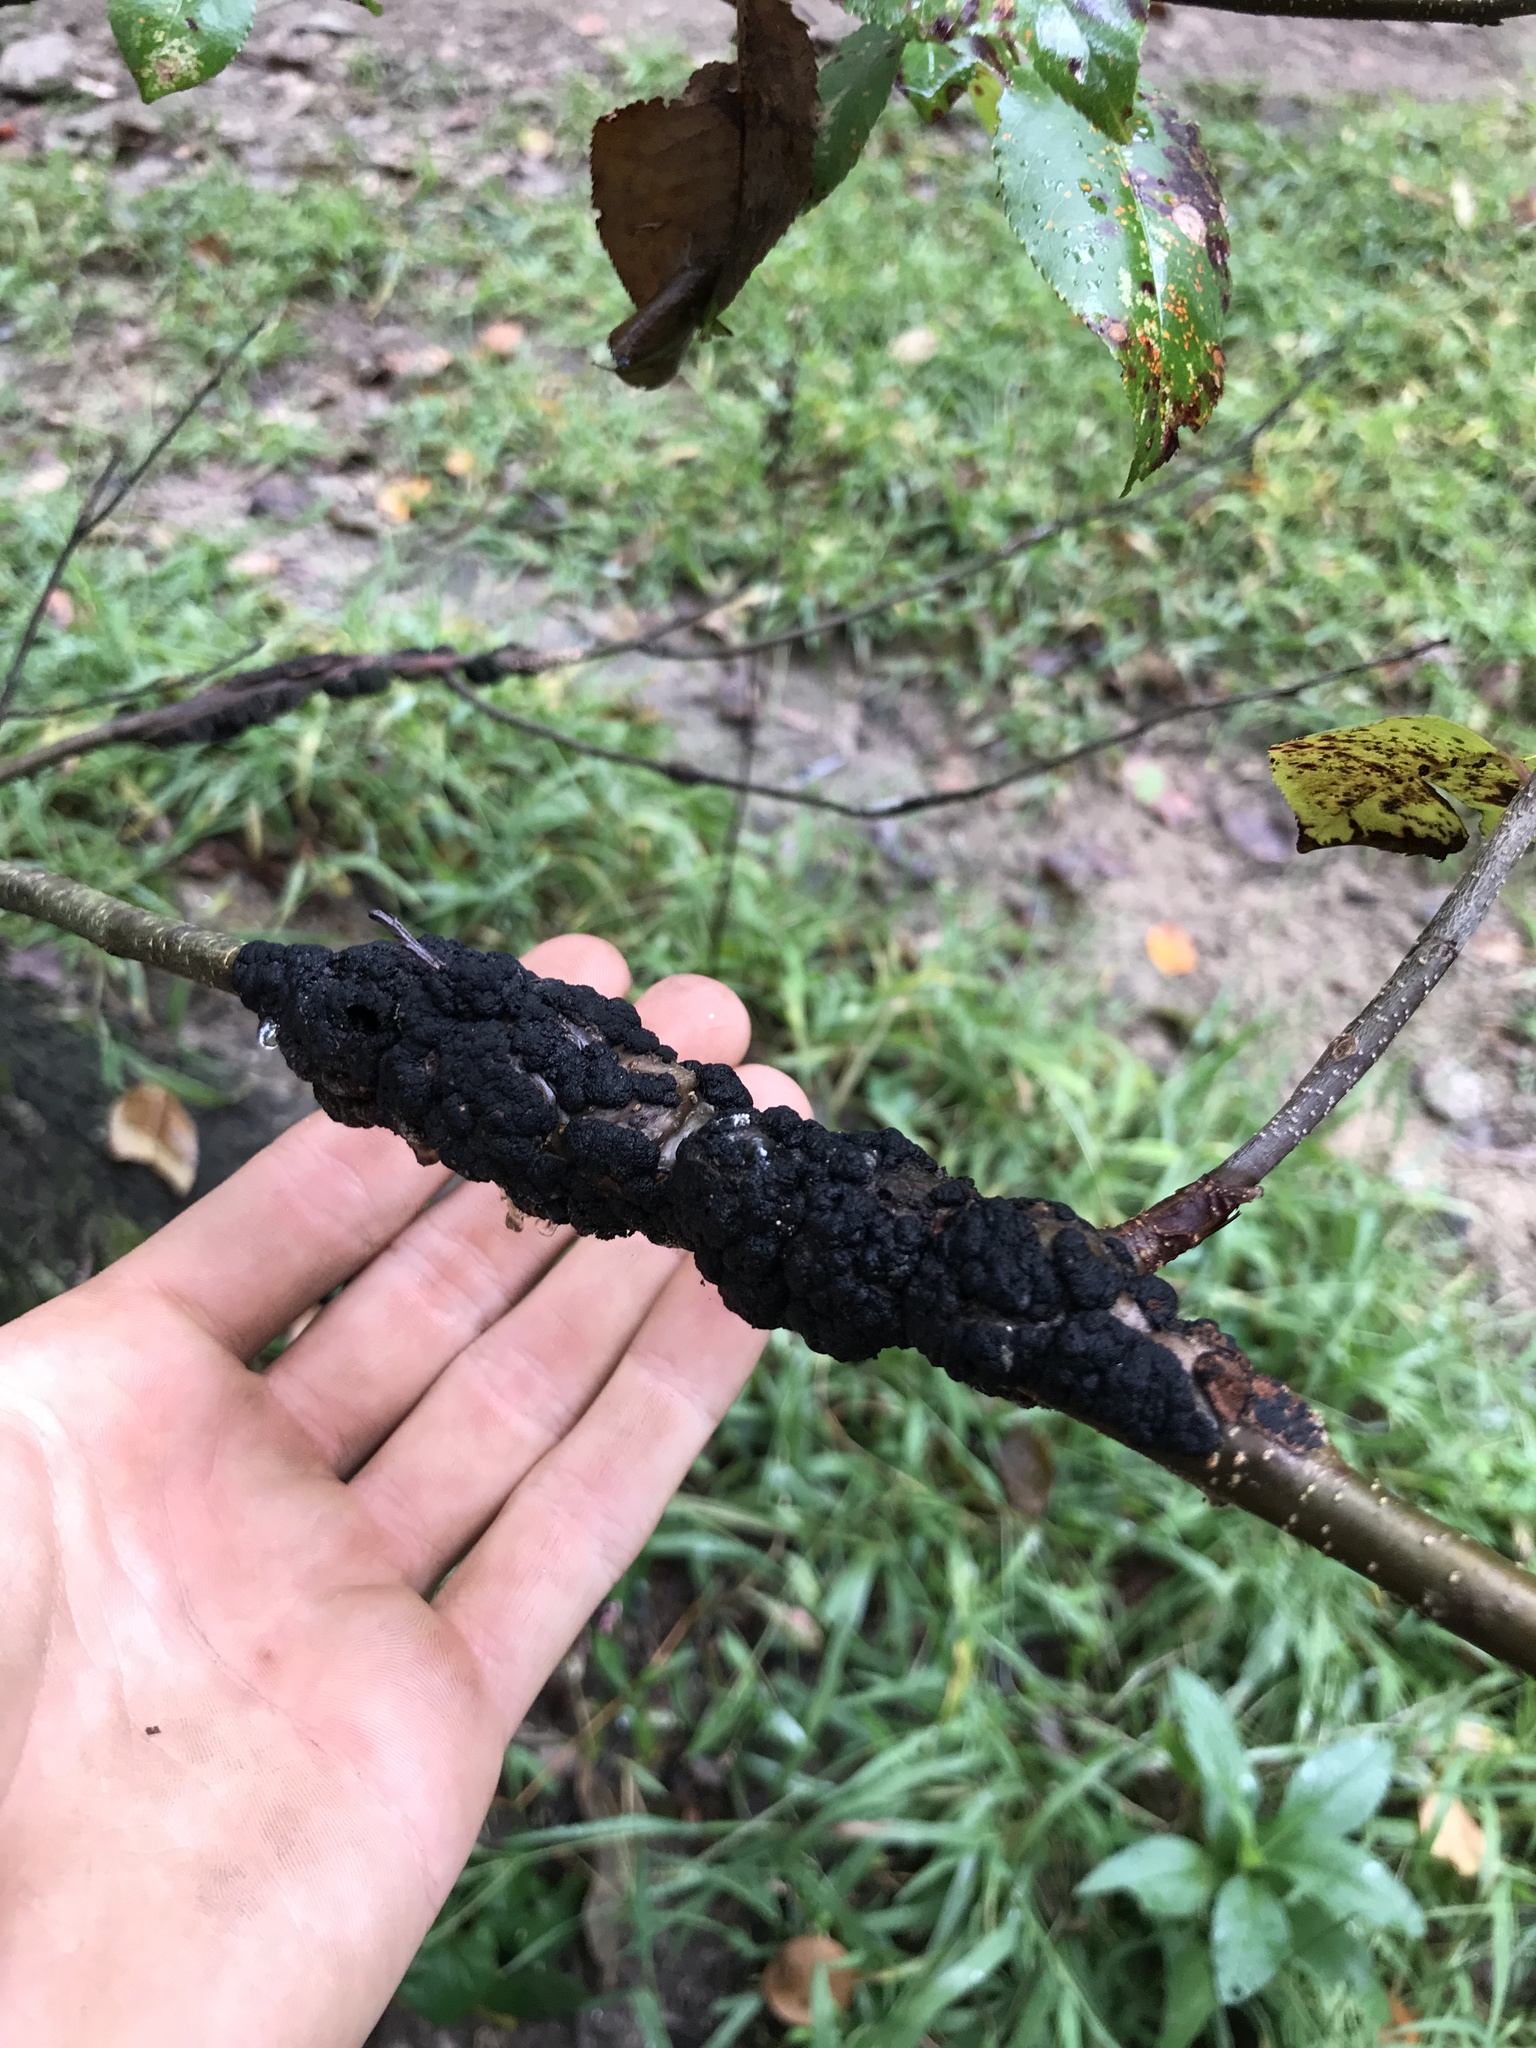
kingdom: Fungi
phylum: Ascomycota
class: Dothideomycetes
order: Venturiales
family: Venturiaceae
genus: Apiosporina
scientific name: Apiosporina morbosa
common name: Black knot
